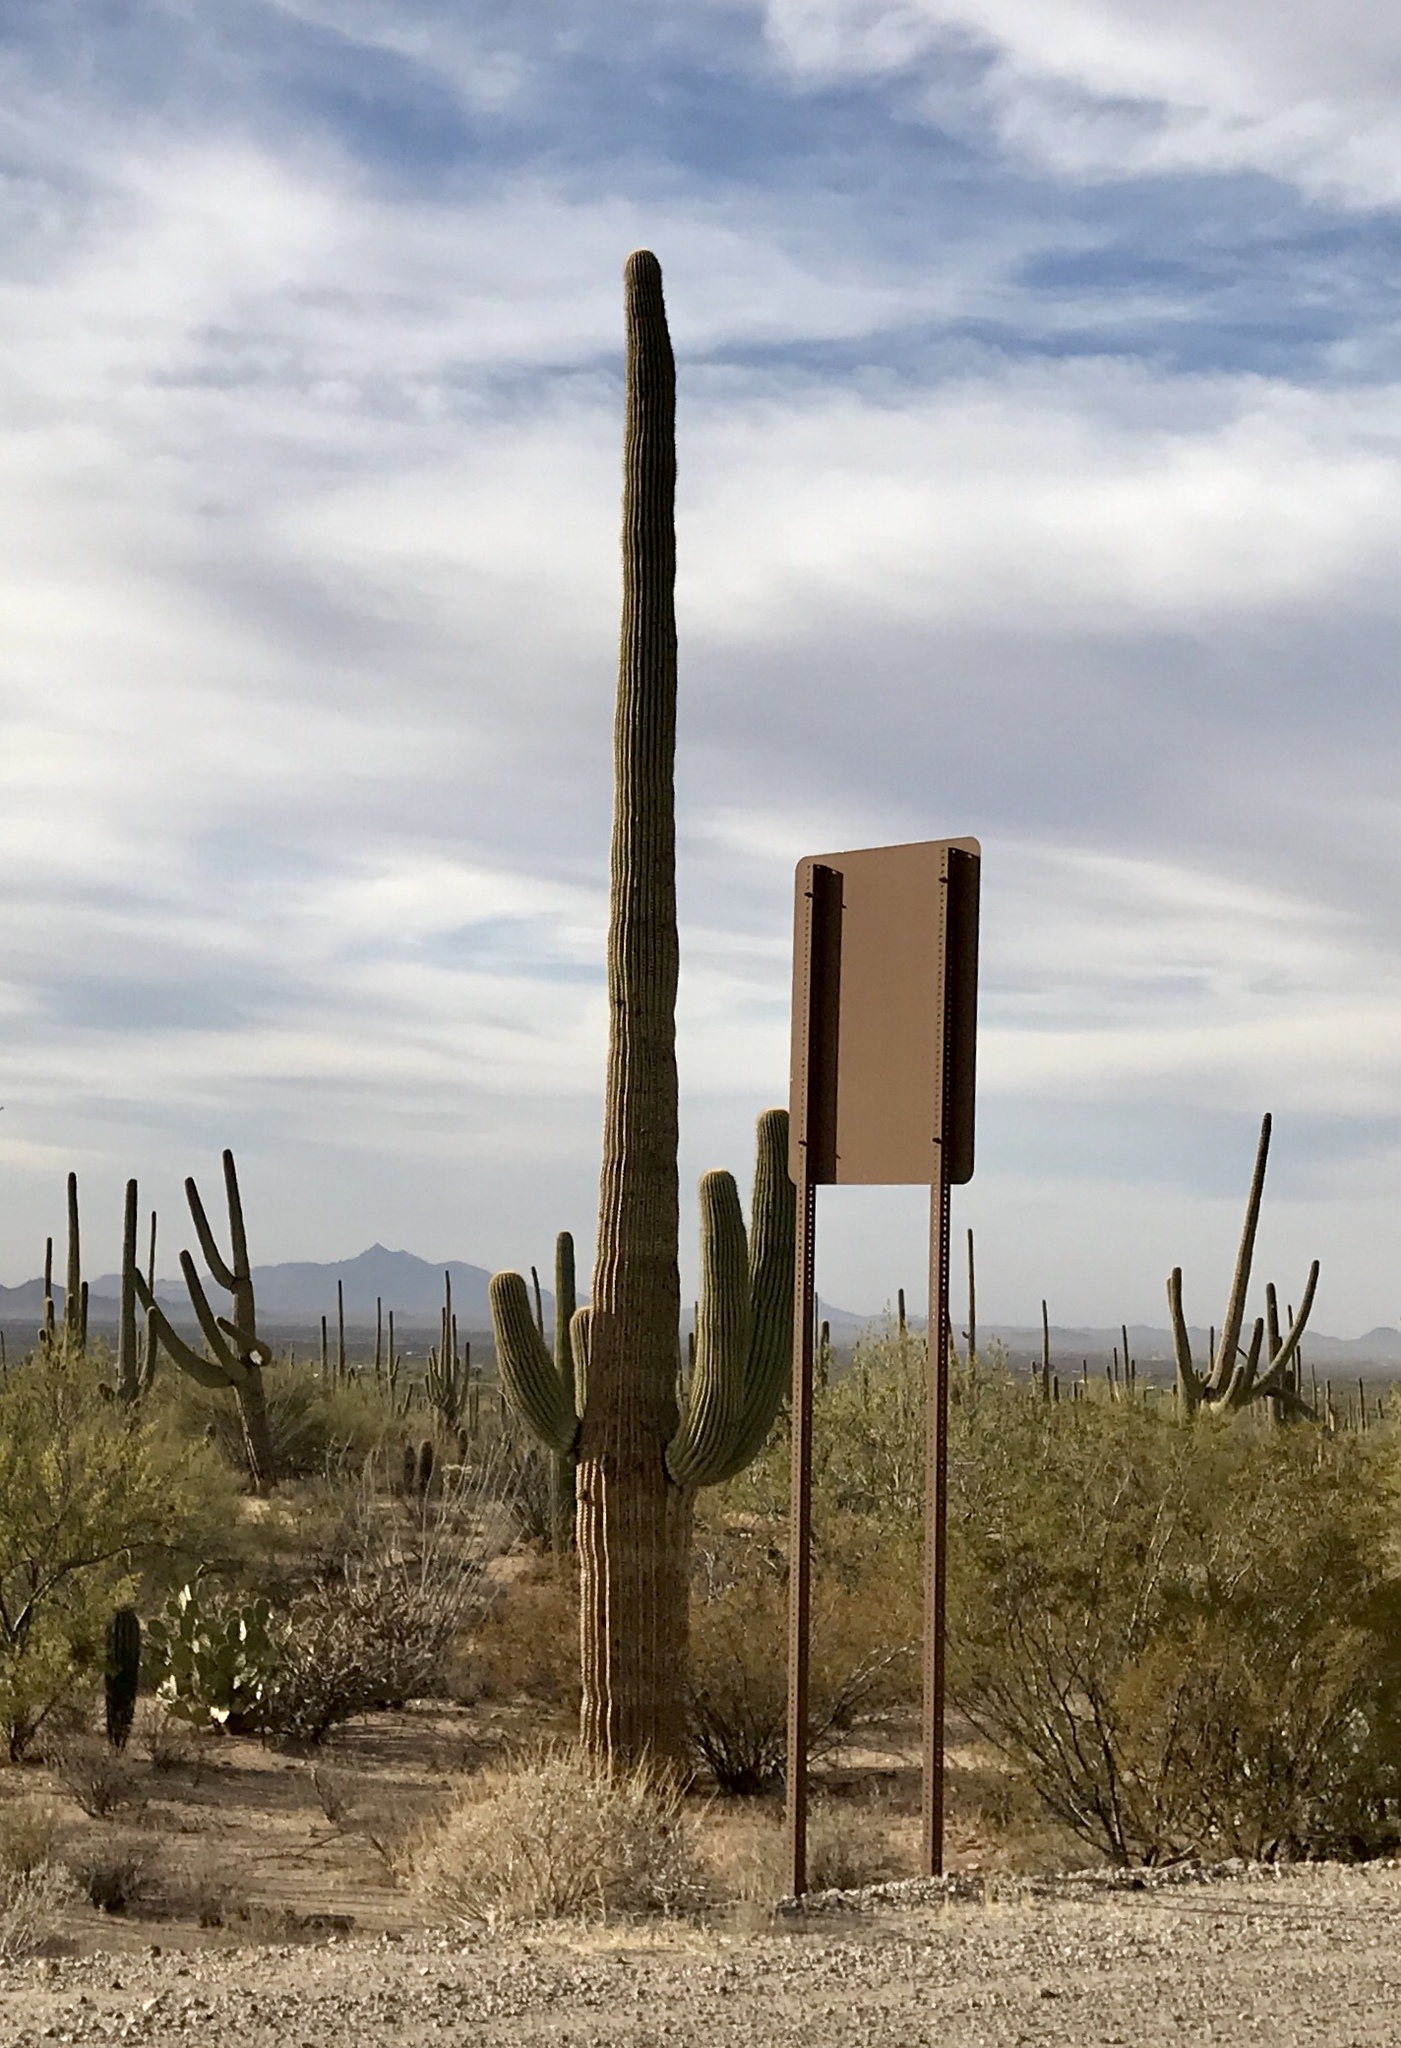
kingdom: Plantae
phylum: Tracheophyta
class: Magnoliopsida
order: Caryophyllales
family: Cactaceae
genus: Carnegiea
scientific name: Carnegiea gigantea
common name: Saguaro
